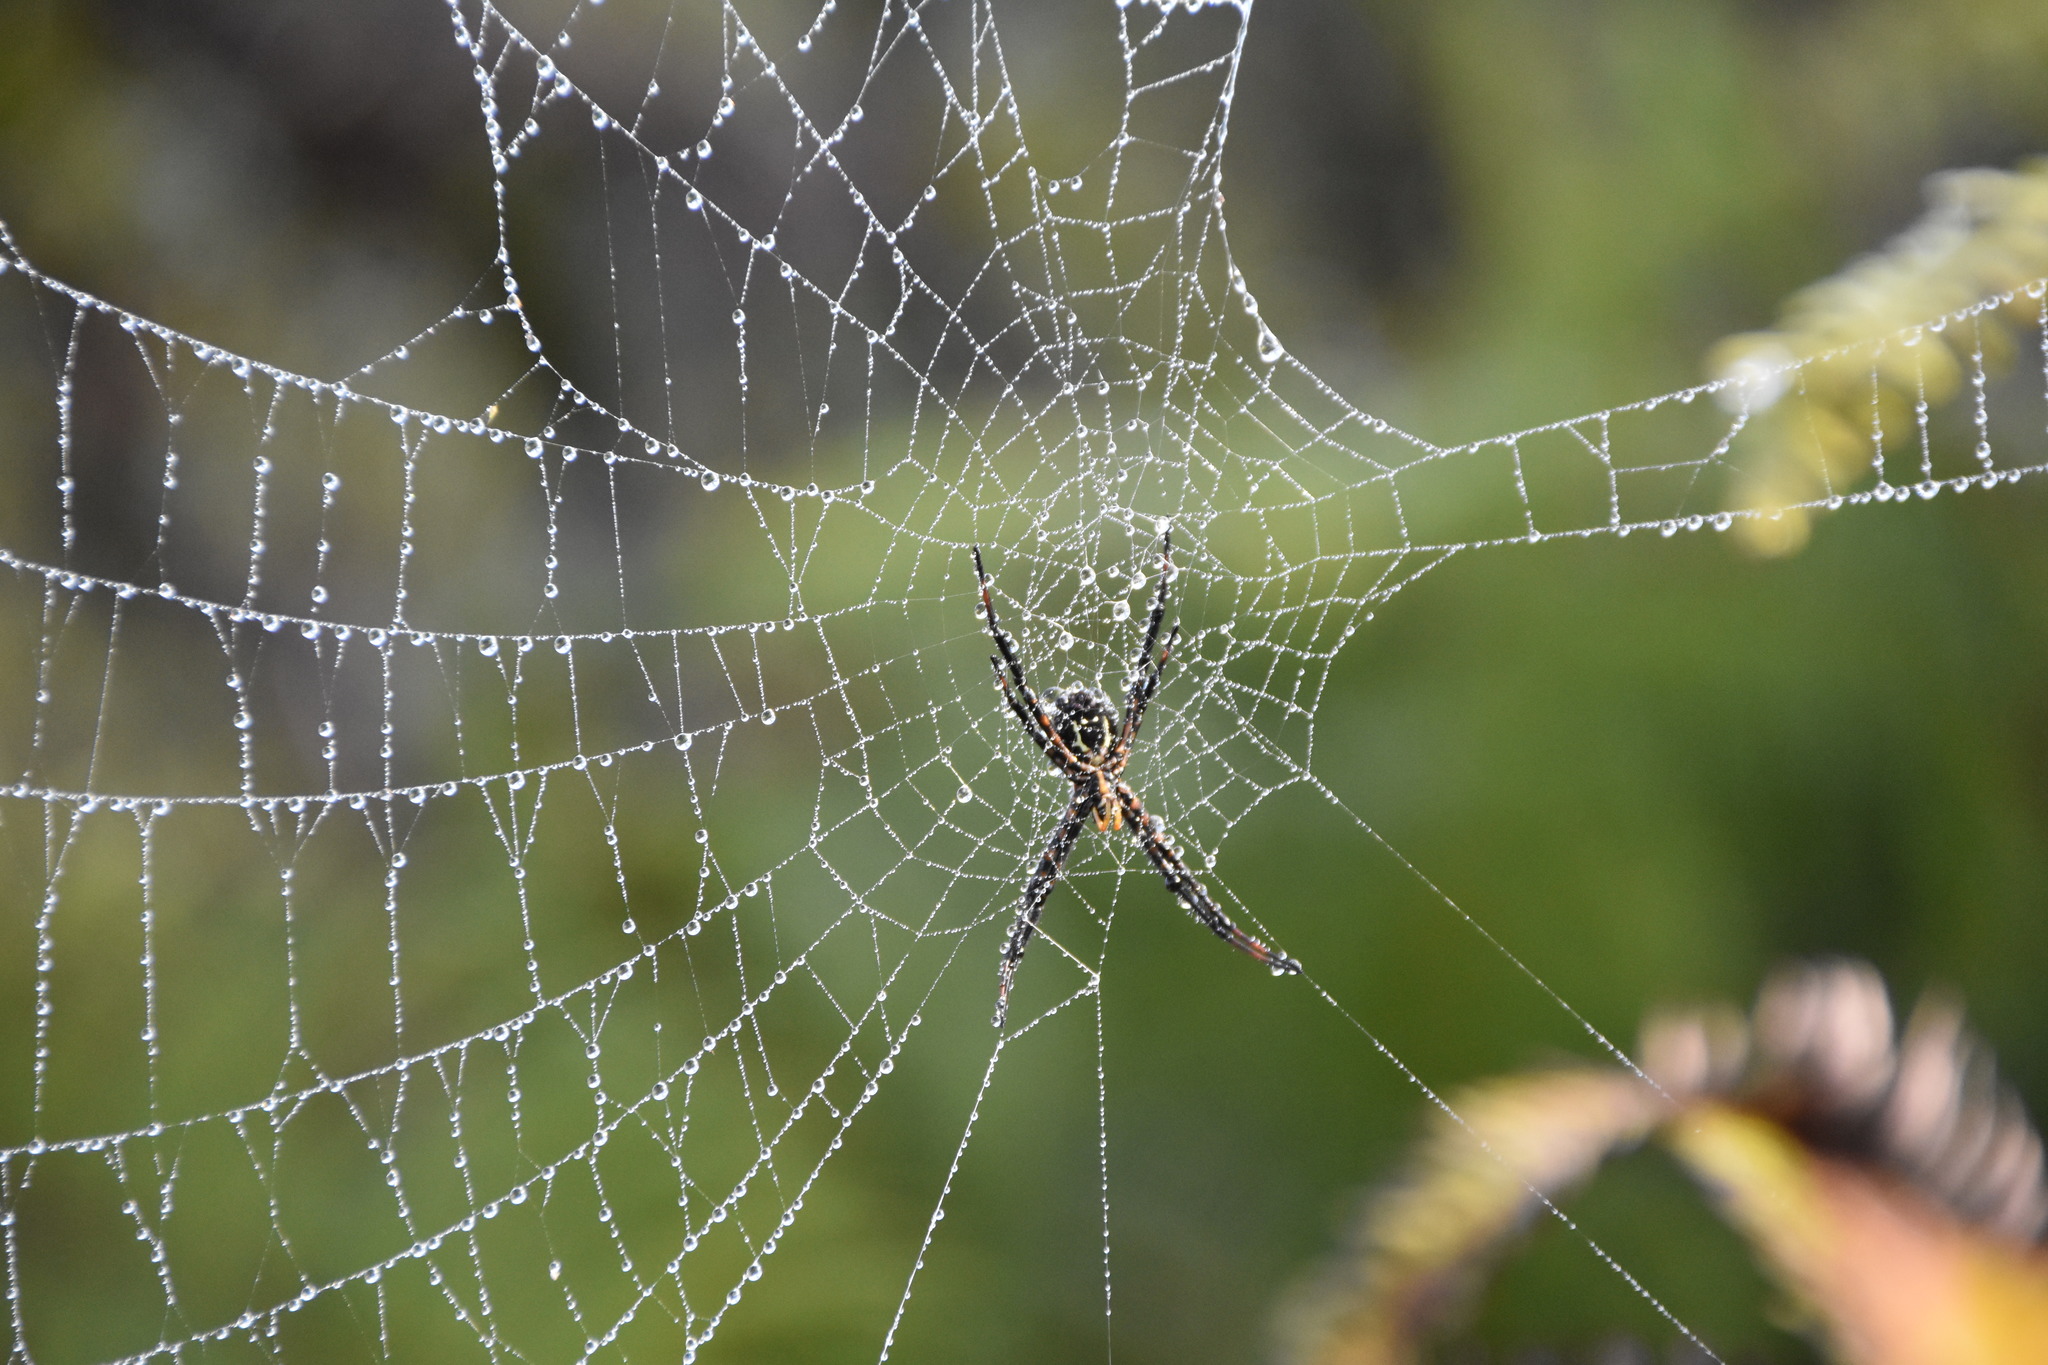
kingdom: Animalia
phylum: Arthropoda
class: Arachnida
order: Araneae
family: Araneidae
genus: Argiope
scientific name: Argiope trifasciata
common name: Banded garden spider
